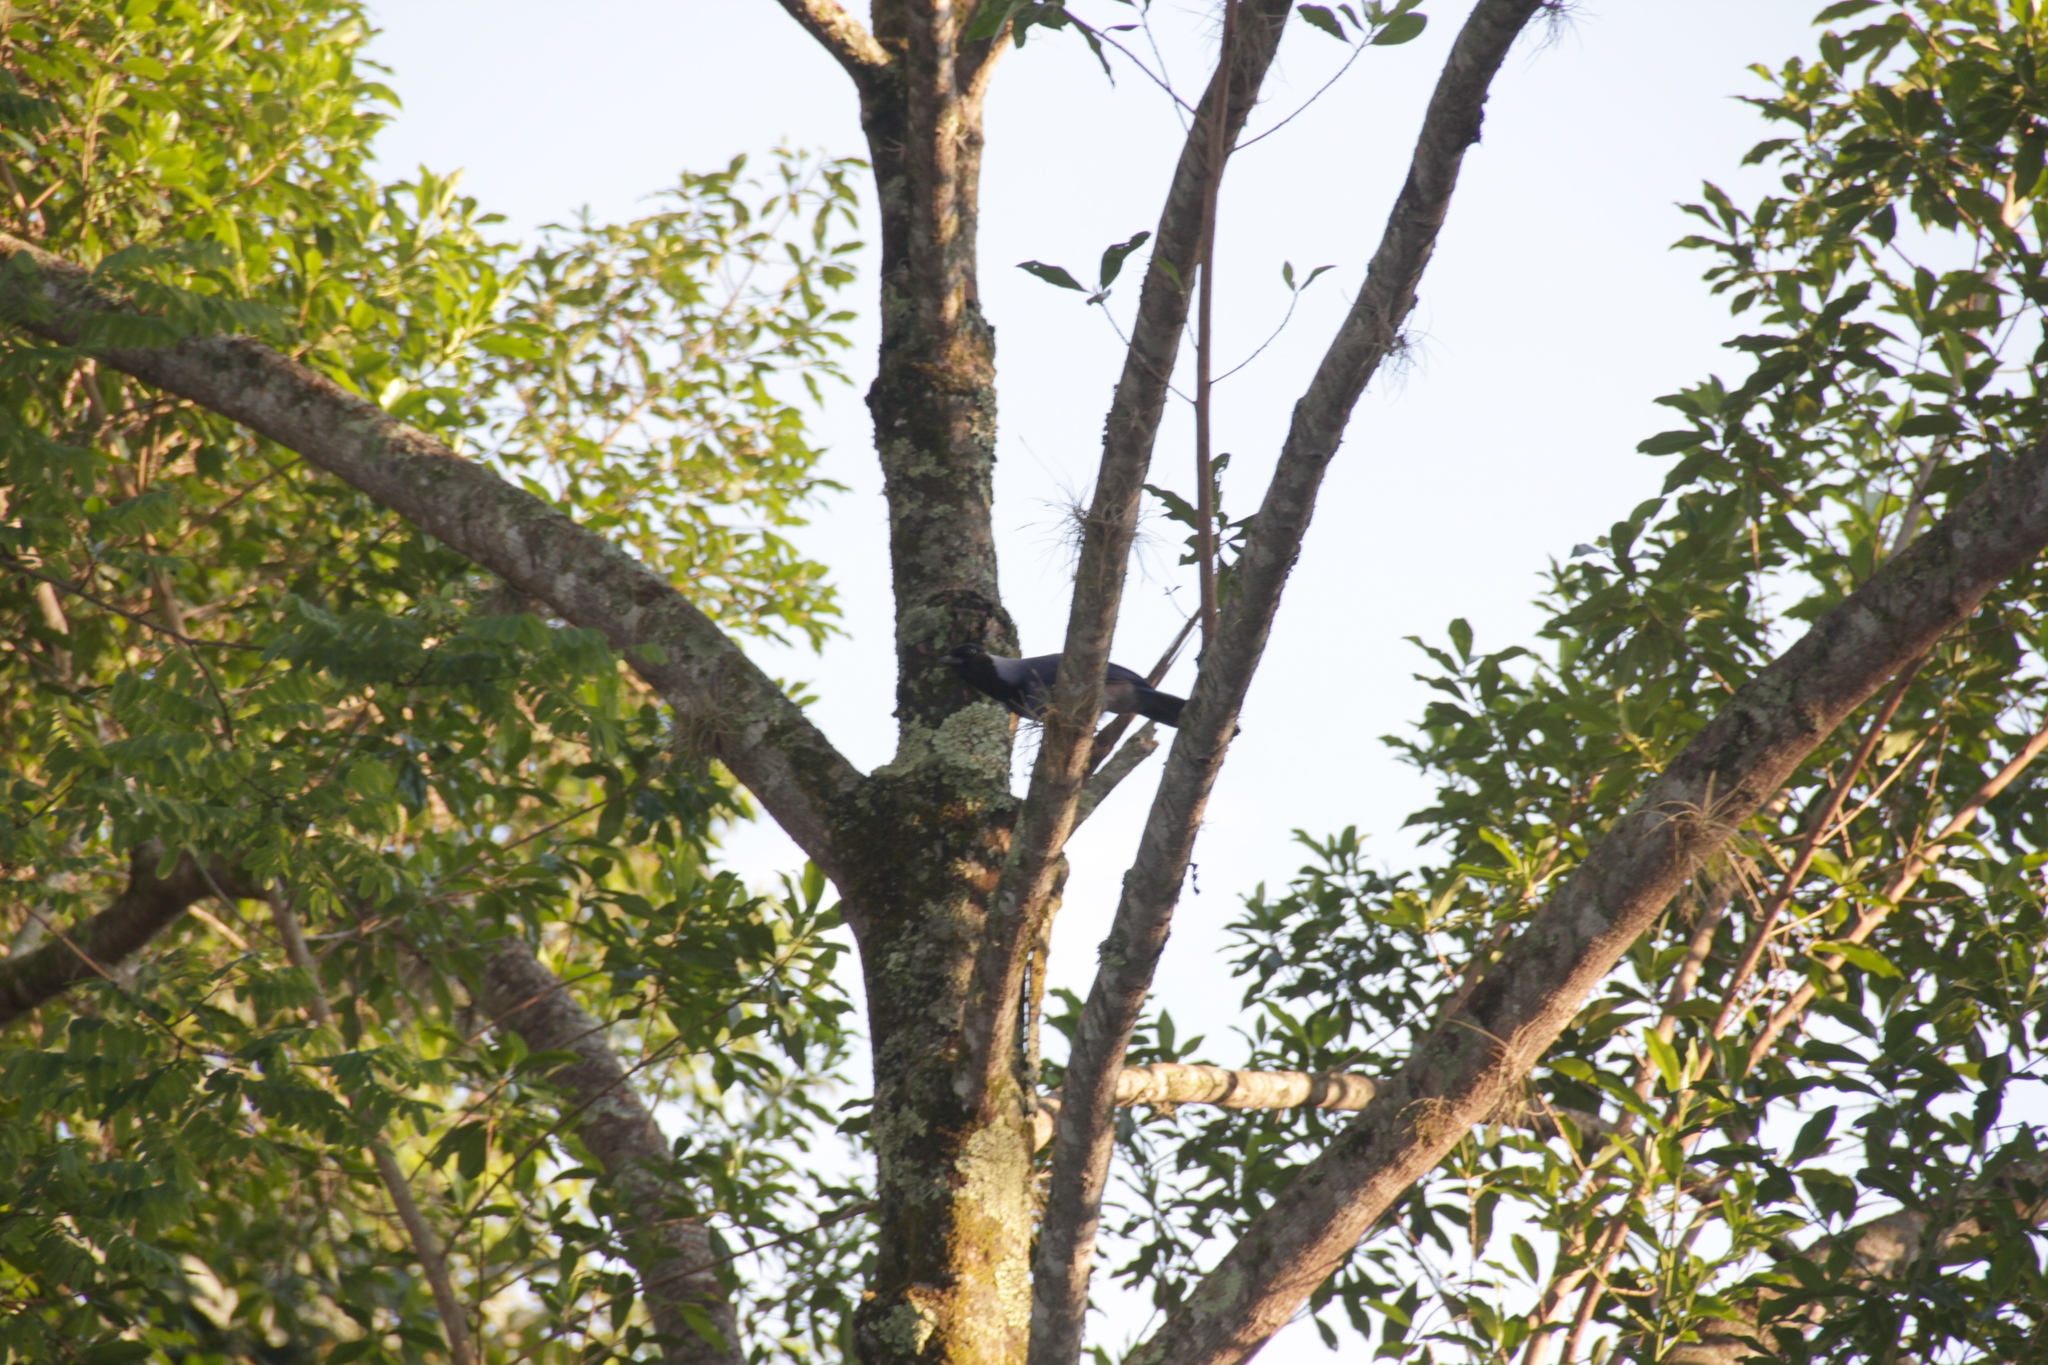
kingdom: Animalia
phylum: Chordata
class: Aves
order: Passeriformes
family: Corvidae
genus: Cyanocorax
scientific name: Cyanocorax violaceus
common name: Violaceous jay
